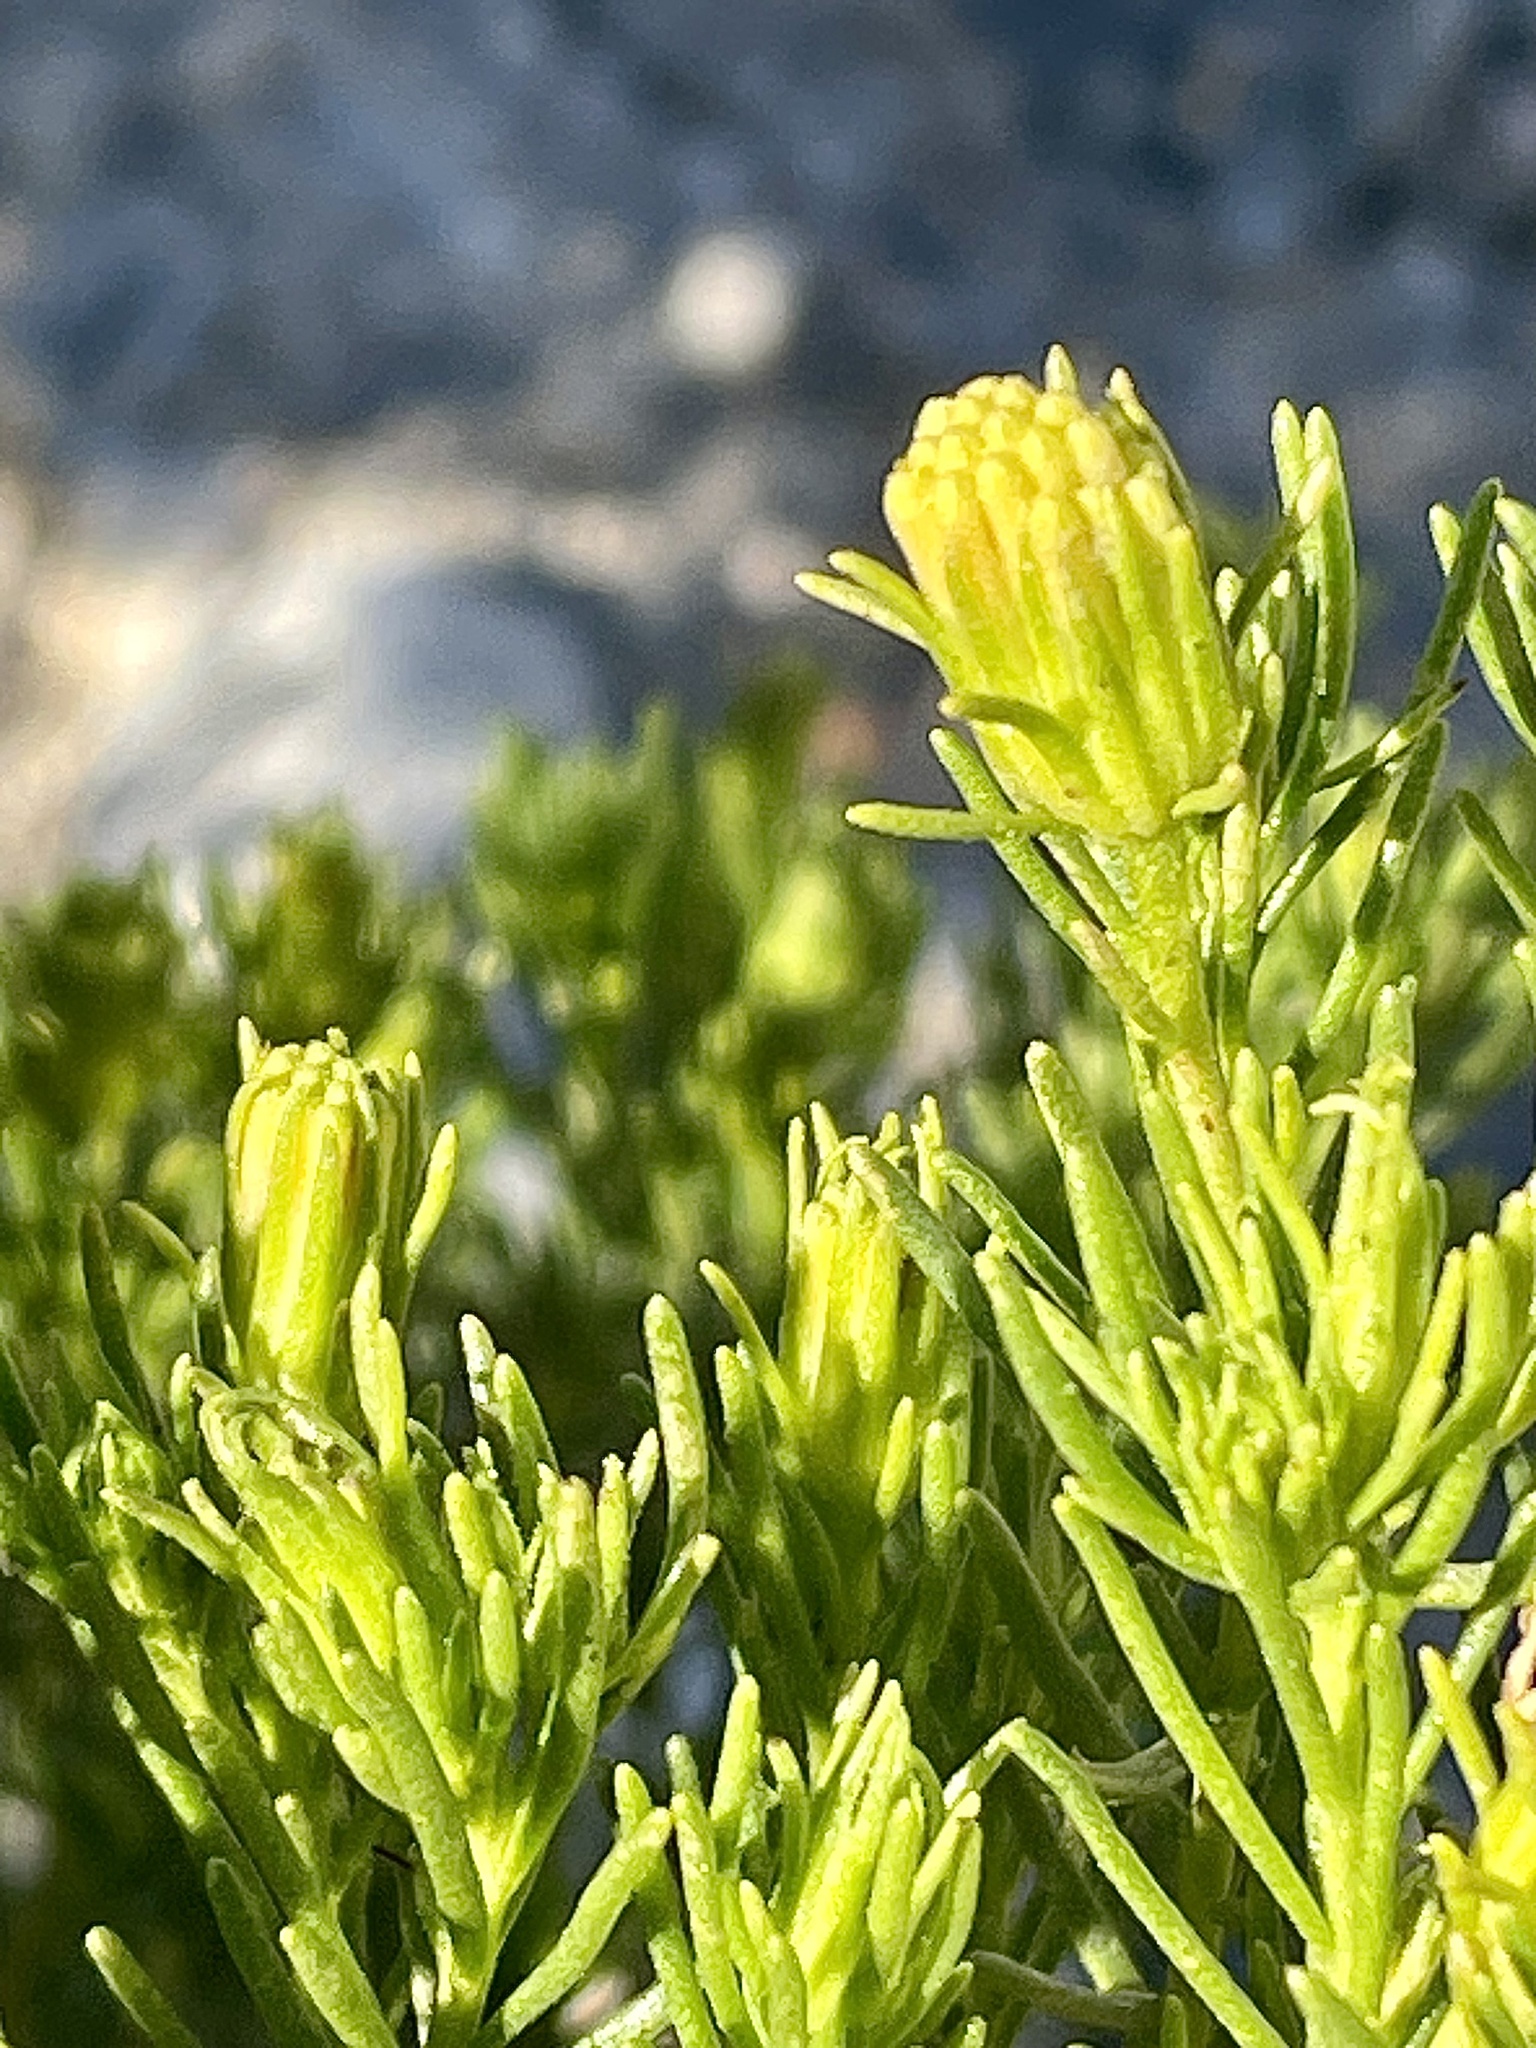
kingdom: Plantae
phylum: Tracheophyta
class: Magnoliopsida
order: Asterales
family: Asteraceae
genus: Peucephyllum
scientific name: Peucephyllum schottii
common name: Pygmy-cedar
